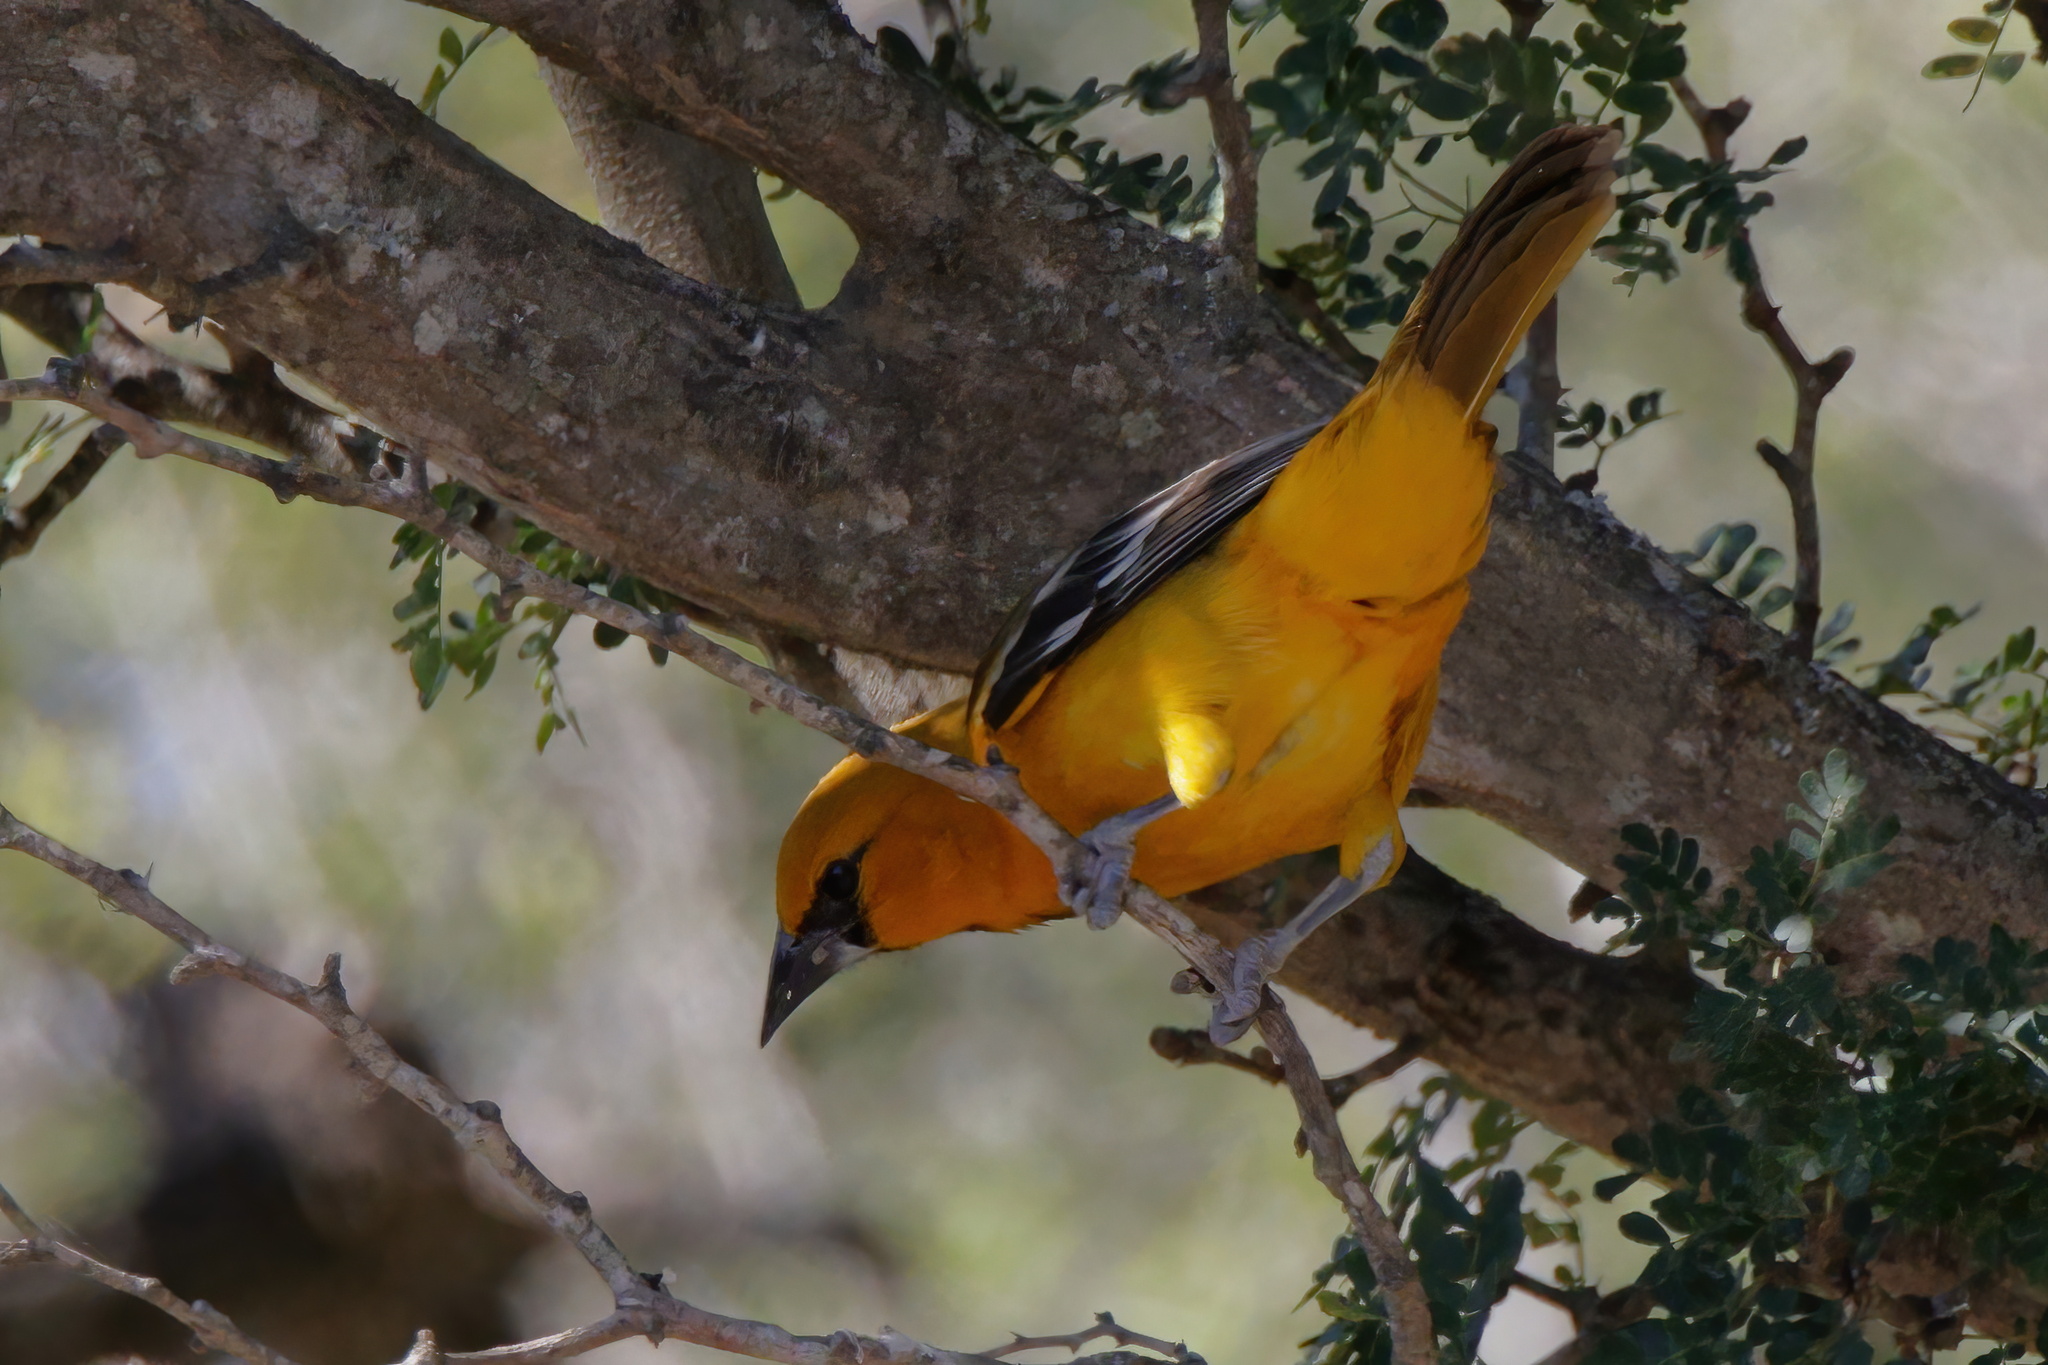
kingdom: Animalia
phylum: Chordata
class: Aves
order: Passeriformes
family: Icteridae
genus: Icterus
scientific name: Icterus gularis
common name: Altamira oriole
